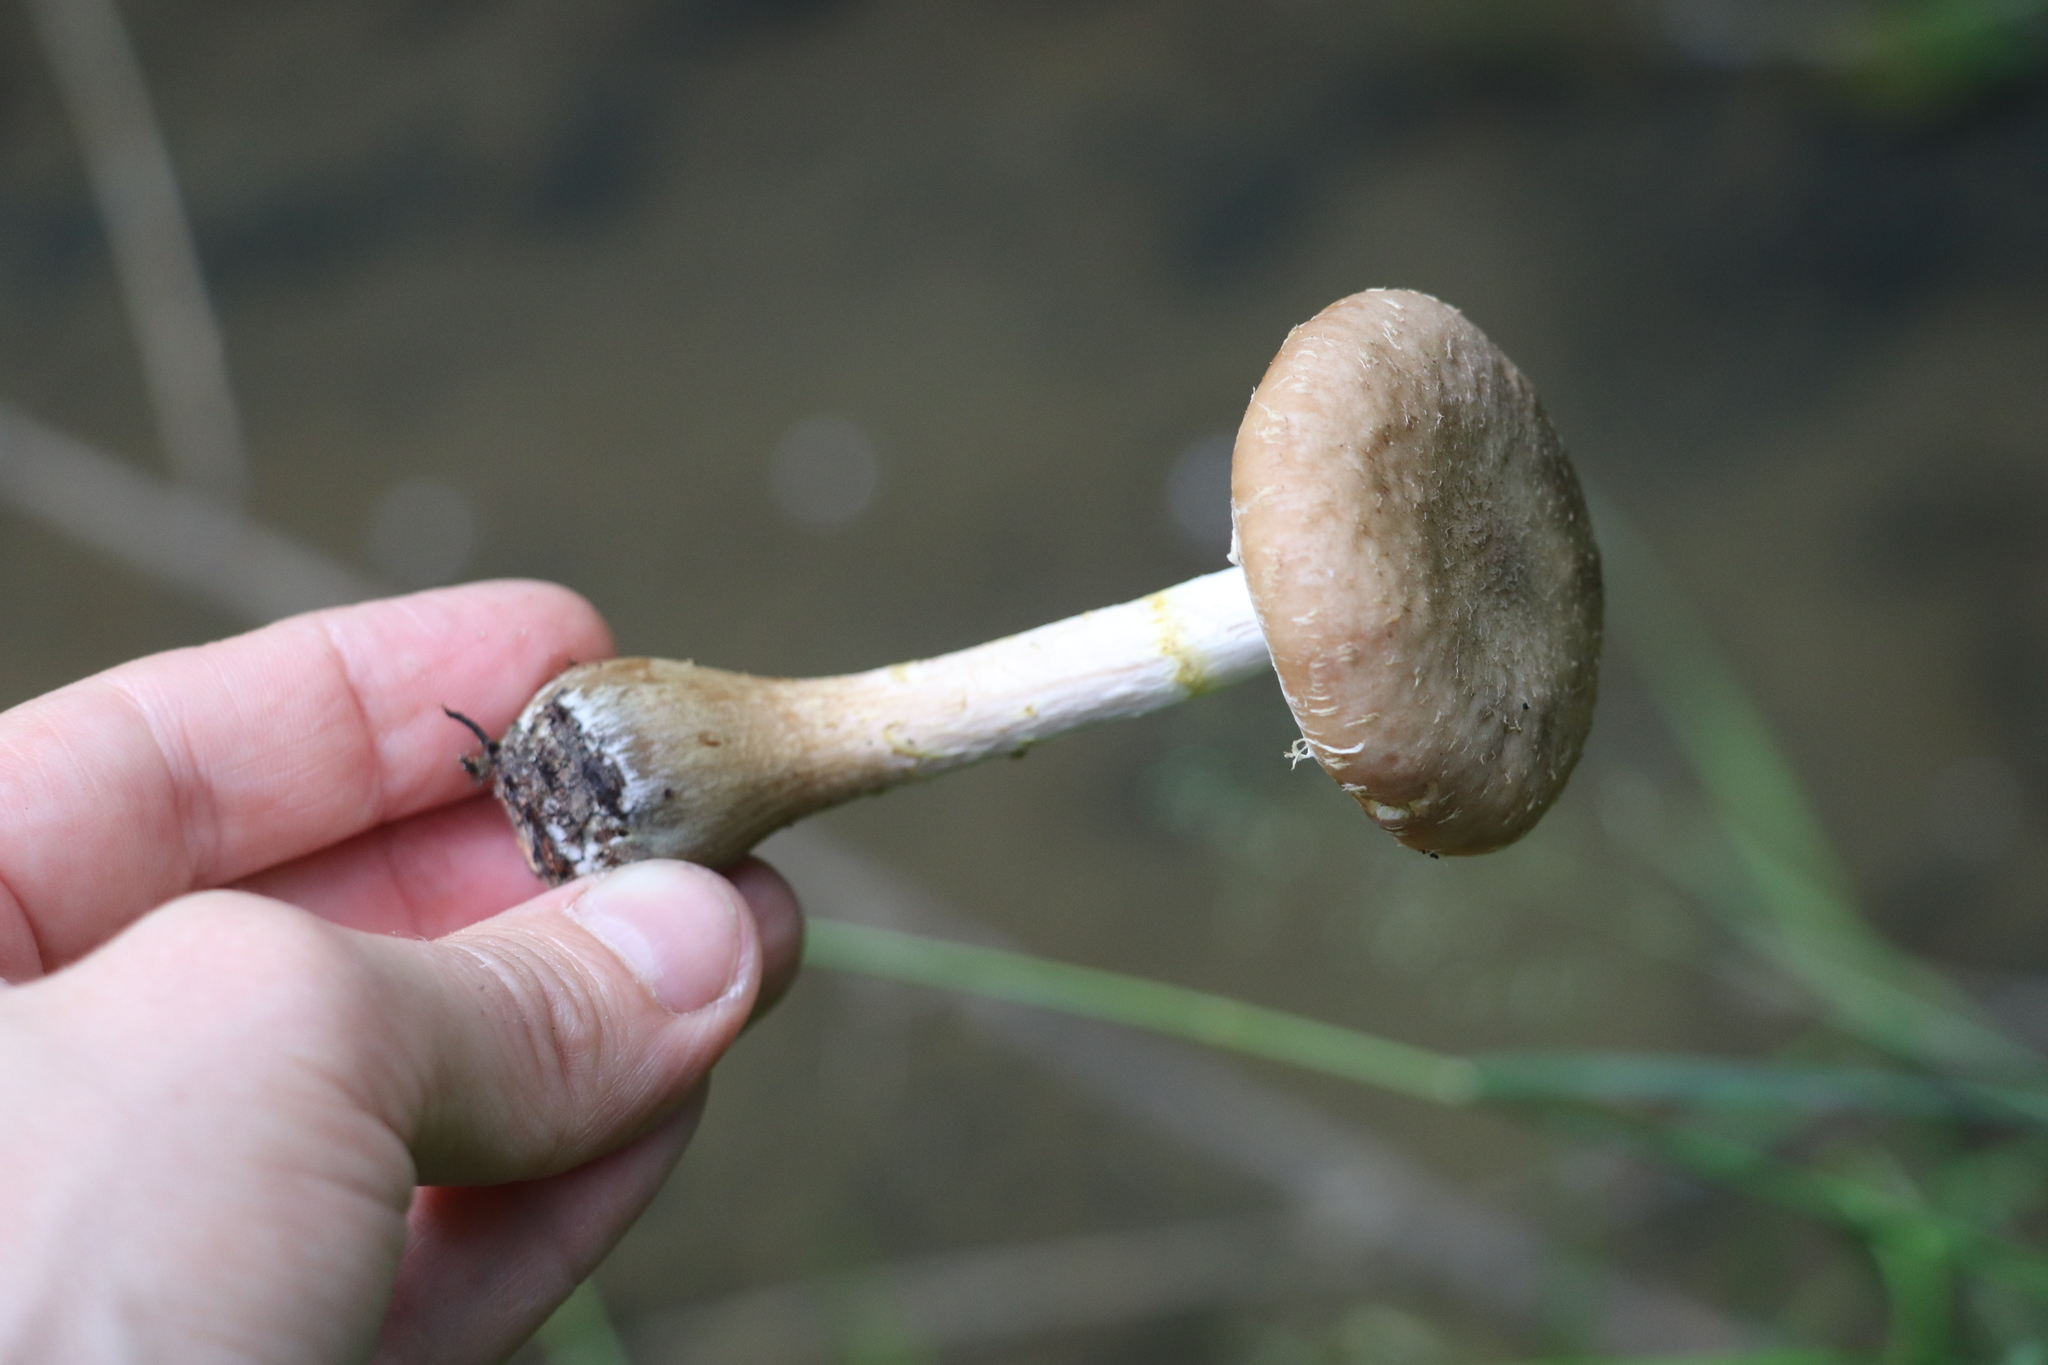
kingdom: Fungi
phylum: Basidiomycota
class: Agaricomycetes
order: Agaricales
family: Physalacriaceae
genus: Armillaria
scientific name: Armillaria cepistipes
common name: Mullet honey fungus
